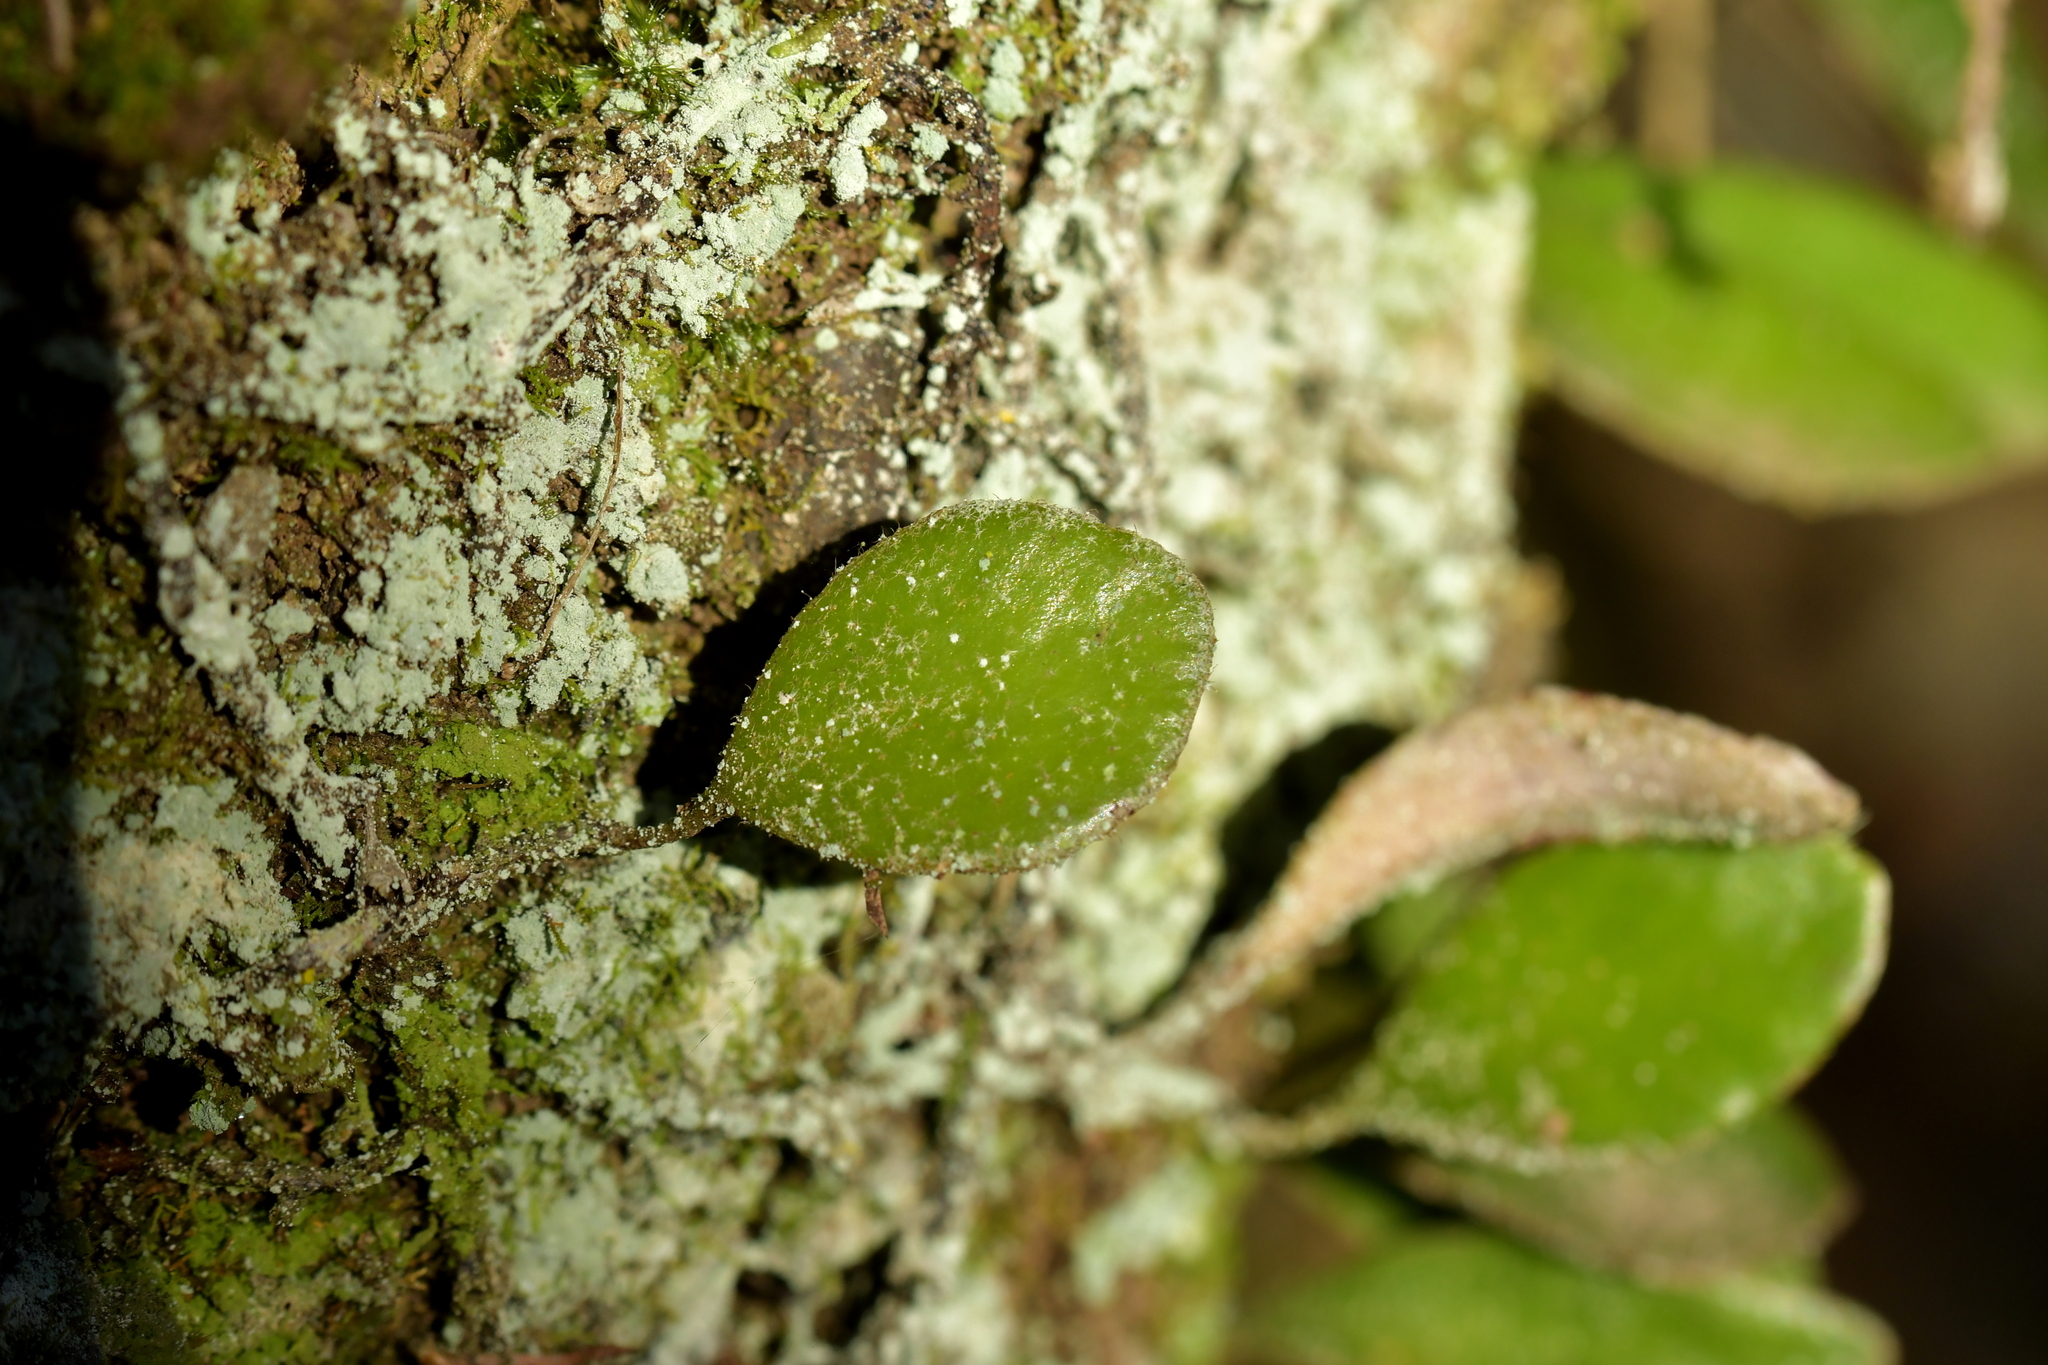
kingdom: Plantae
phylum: Tracheophyta
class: Polypodiopsida
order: Polypodiales
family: Polypodiaceae
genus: Pyrrosia
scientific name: Pyrrosia eleagnifolia
